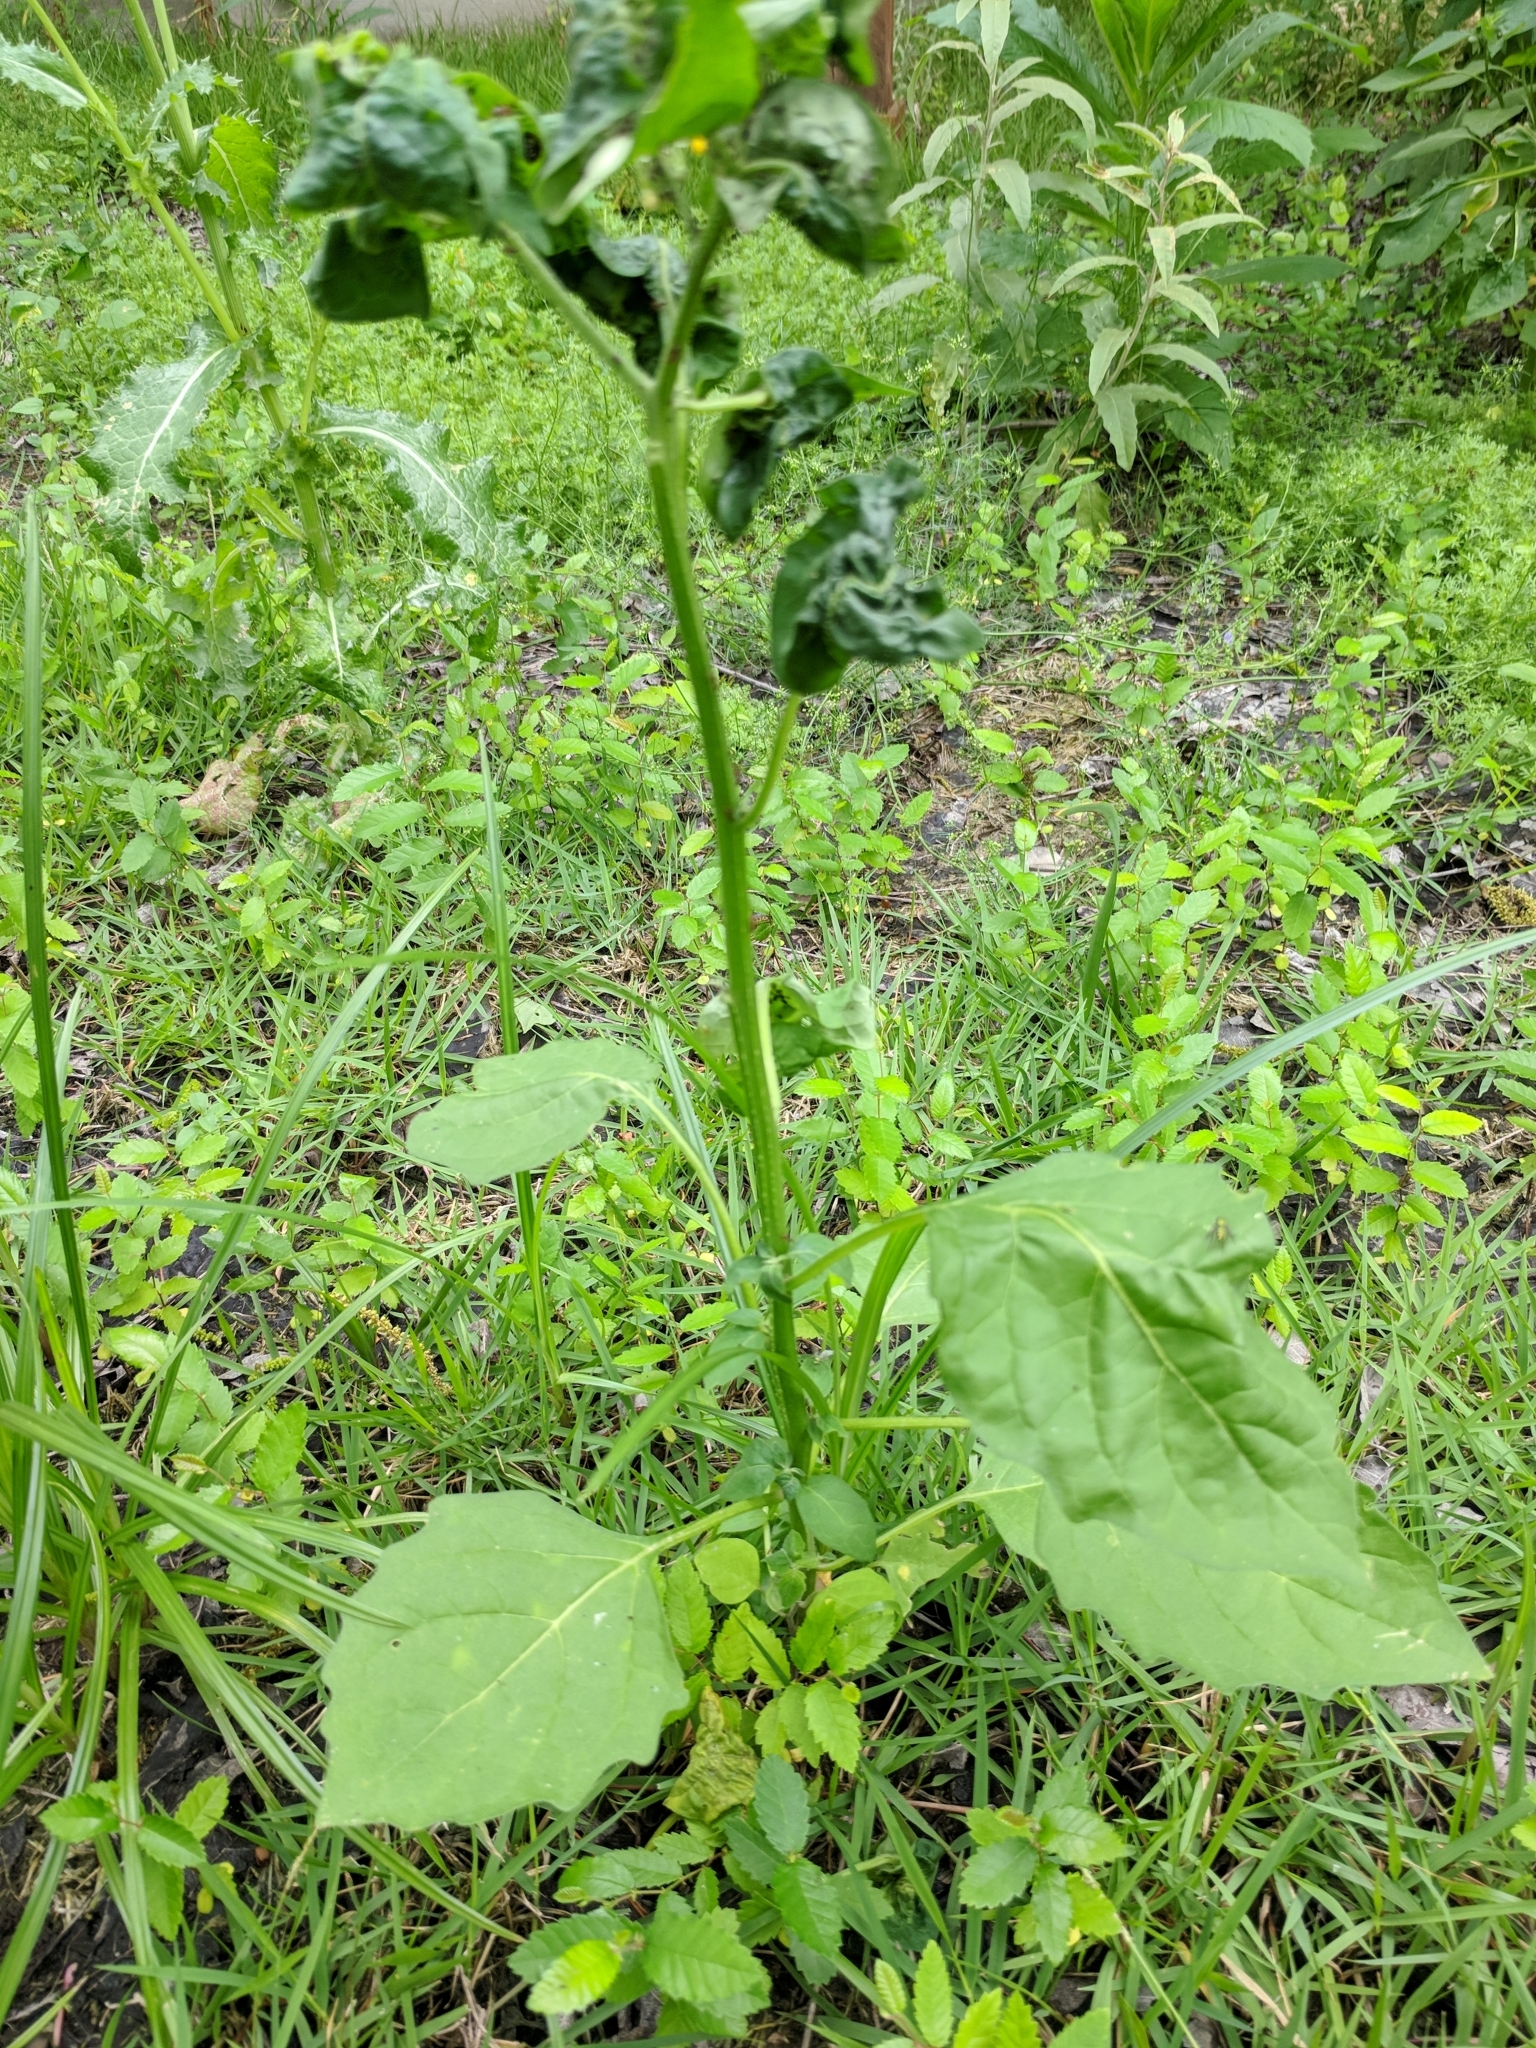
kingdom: Plantae
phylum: Tracheophyta
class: Magnoliopsida
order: Solanales
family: Solanaceae
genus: Solanum
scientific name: Solanum emulans
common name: Eastern black nightshade
